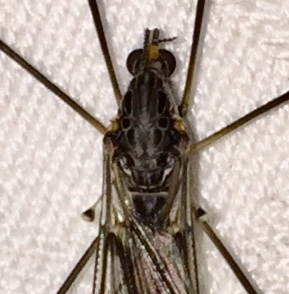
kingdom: Animalia
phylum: Arthropoda
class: Insecta
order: Diptera
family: Tipulidae
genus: Tipula
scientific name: Tipula abdominalis
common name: Giant crane fly
